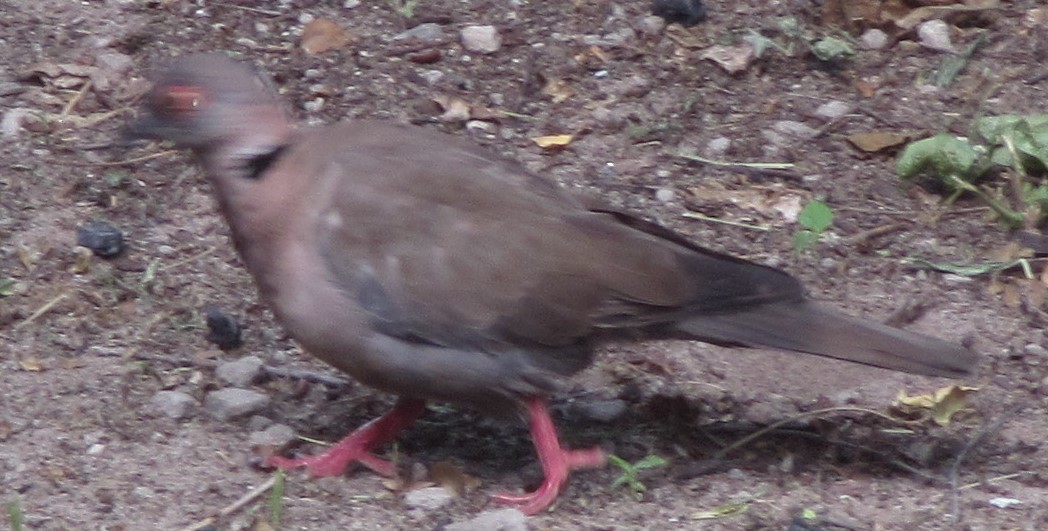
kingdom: Animalia
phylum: Chordata
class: Aves
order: Columbiformes
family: Columbidae
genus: Streptopelia
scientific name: Streptopelia decipiens
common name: Mourning collared dove
